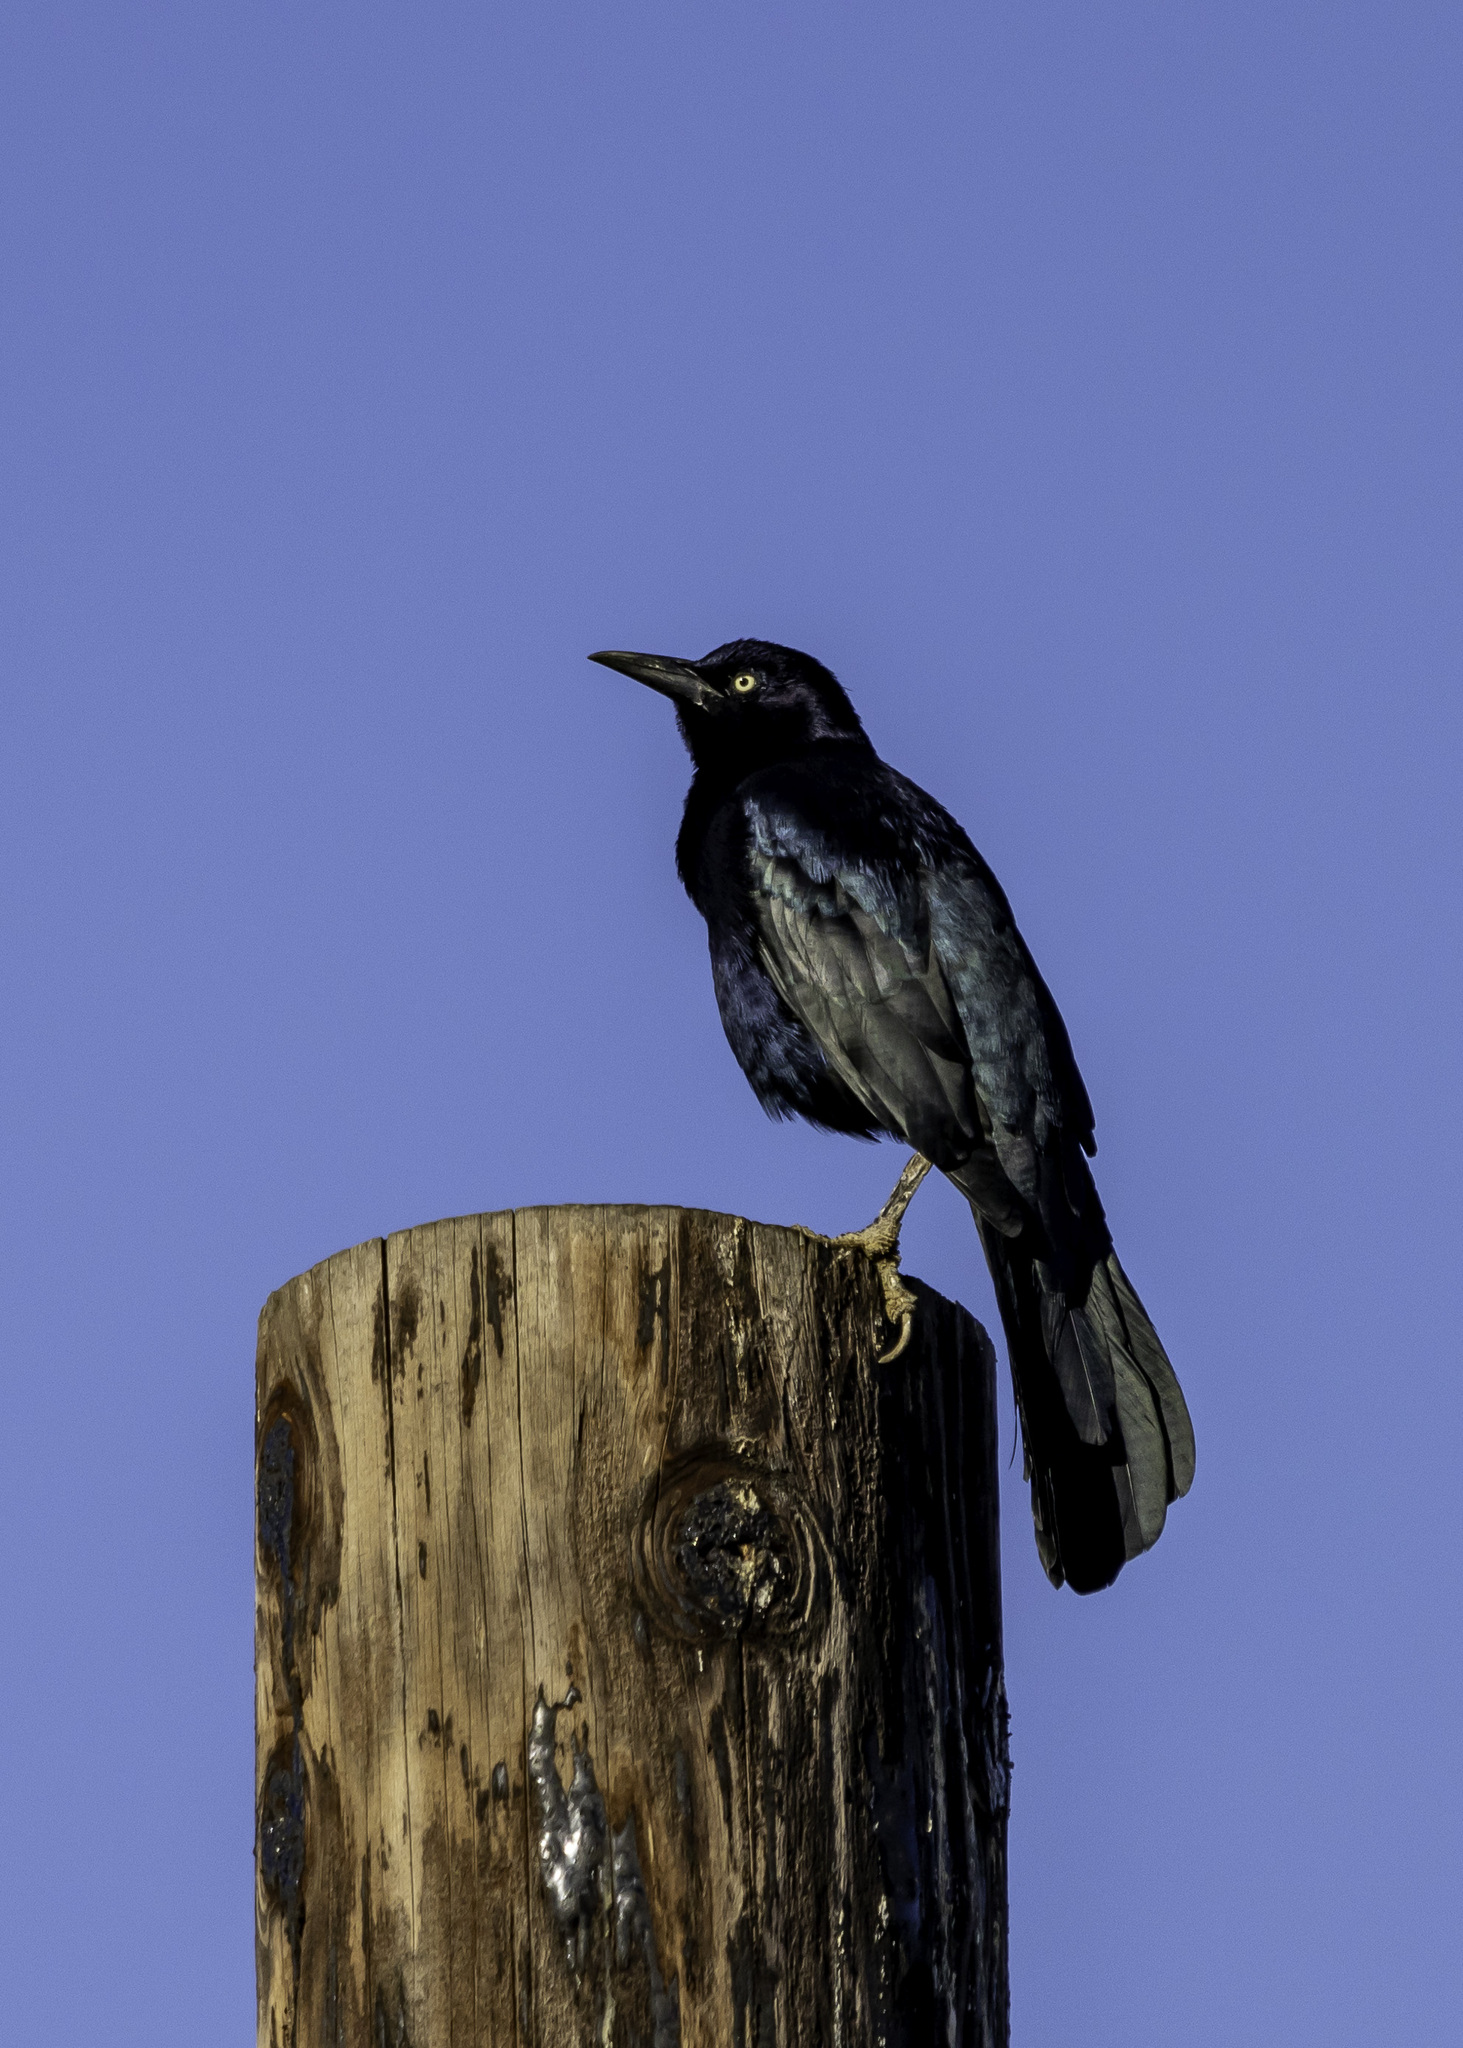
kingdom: Animalia
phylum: Chordata
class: Aves
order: Passeriformes
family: Icteridae
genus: Quiscalus
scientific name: Quiscalus mexicanus
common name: Great-tailed grackle
